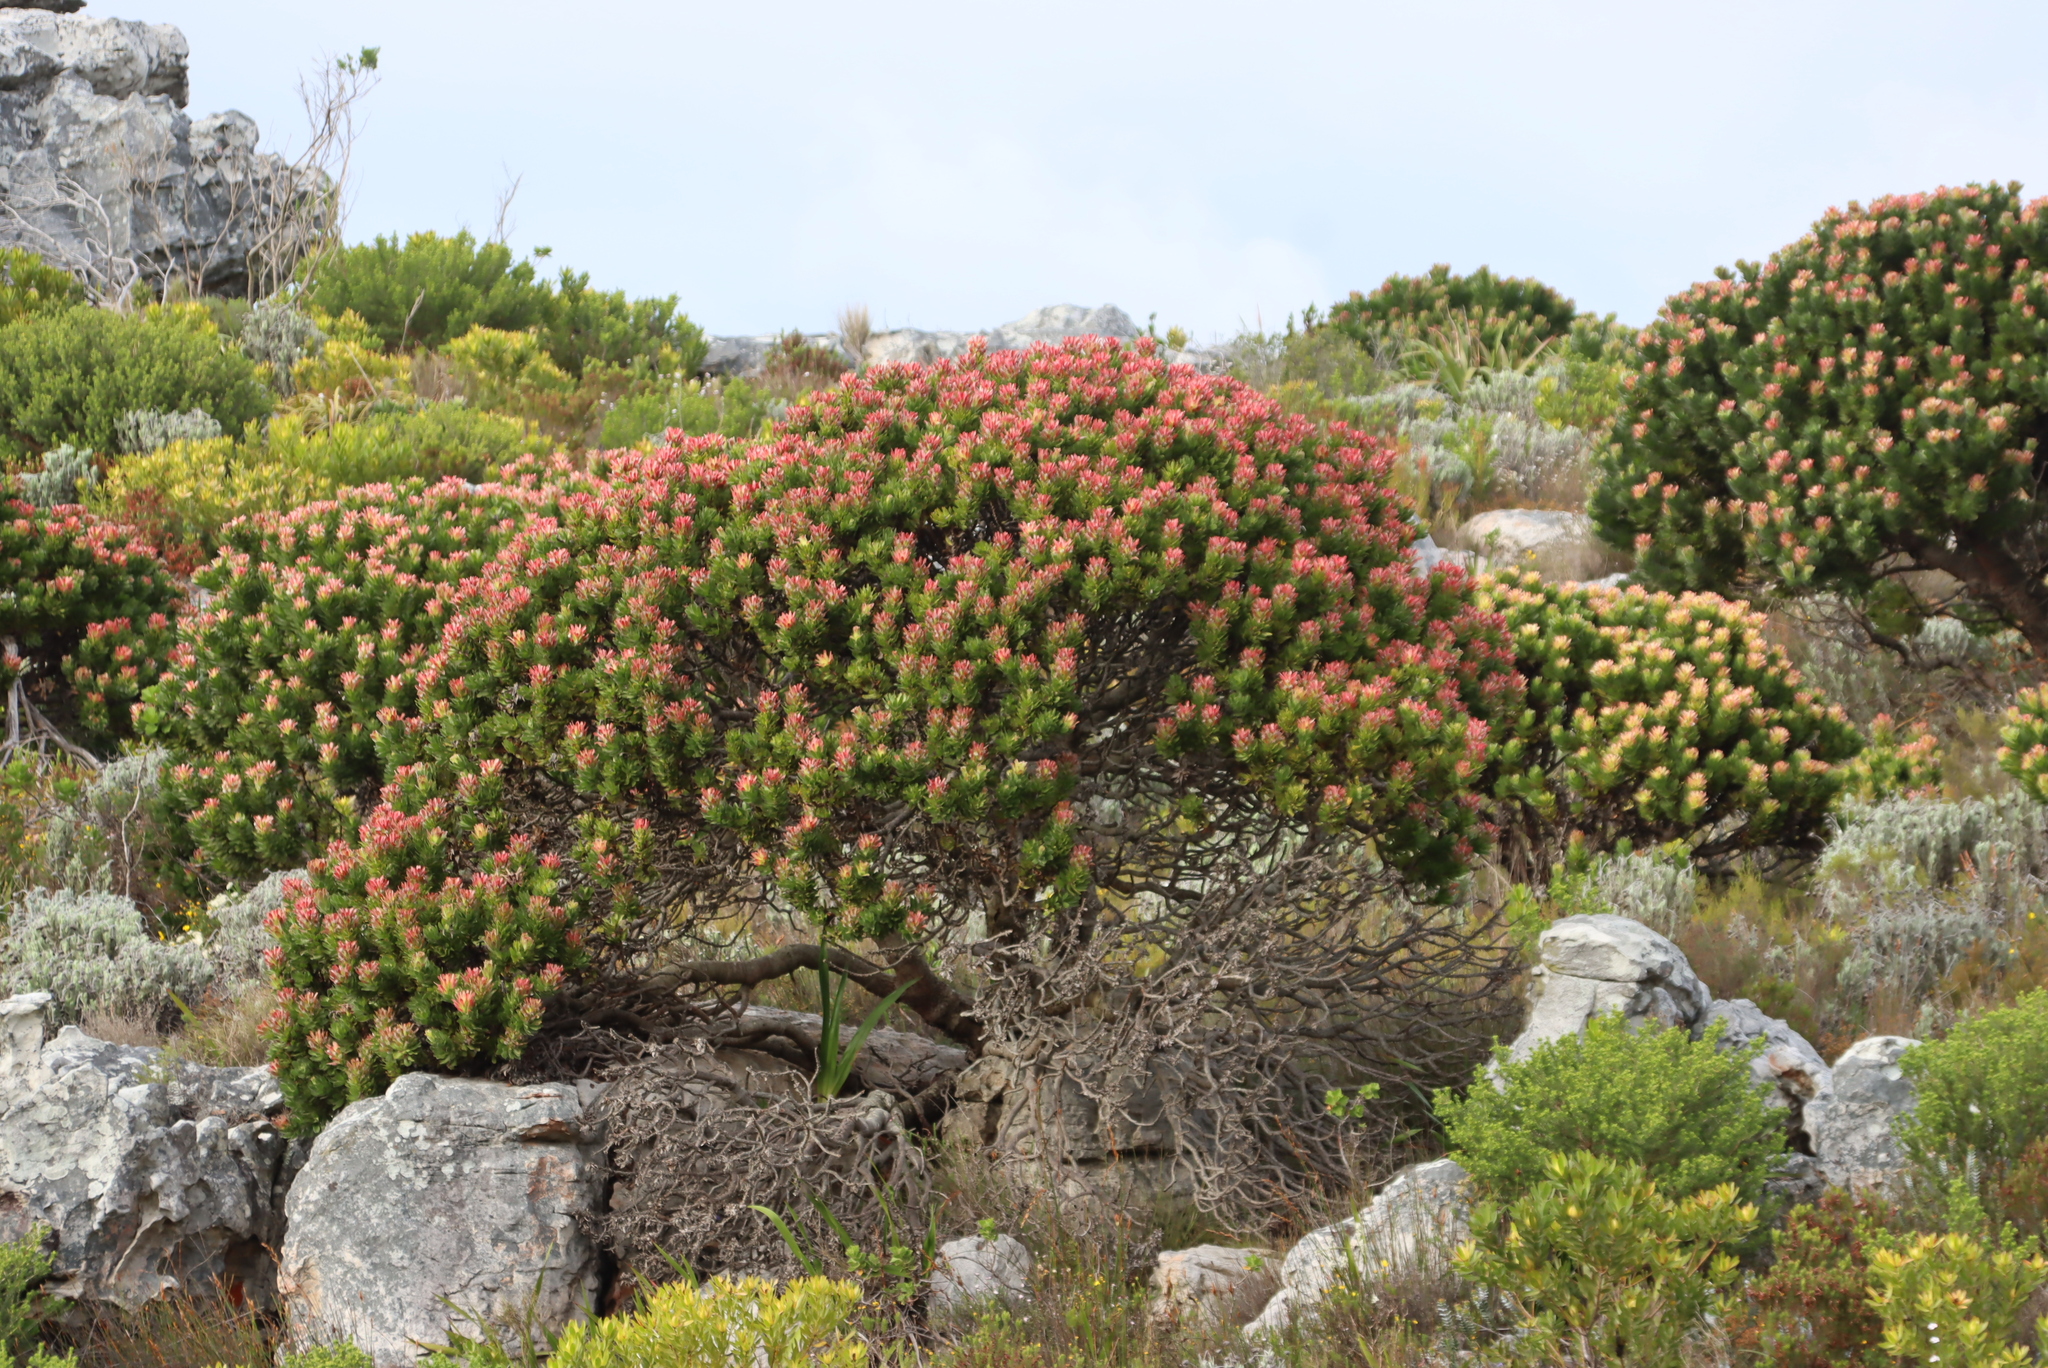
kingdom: Plantae
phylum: Tracheophyta
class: Magnoliopsida
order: Proteales
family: Proteaceae
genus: Mimetes
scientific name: Mimetes fimbriifolius
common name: Fringed bottlebrush
